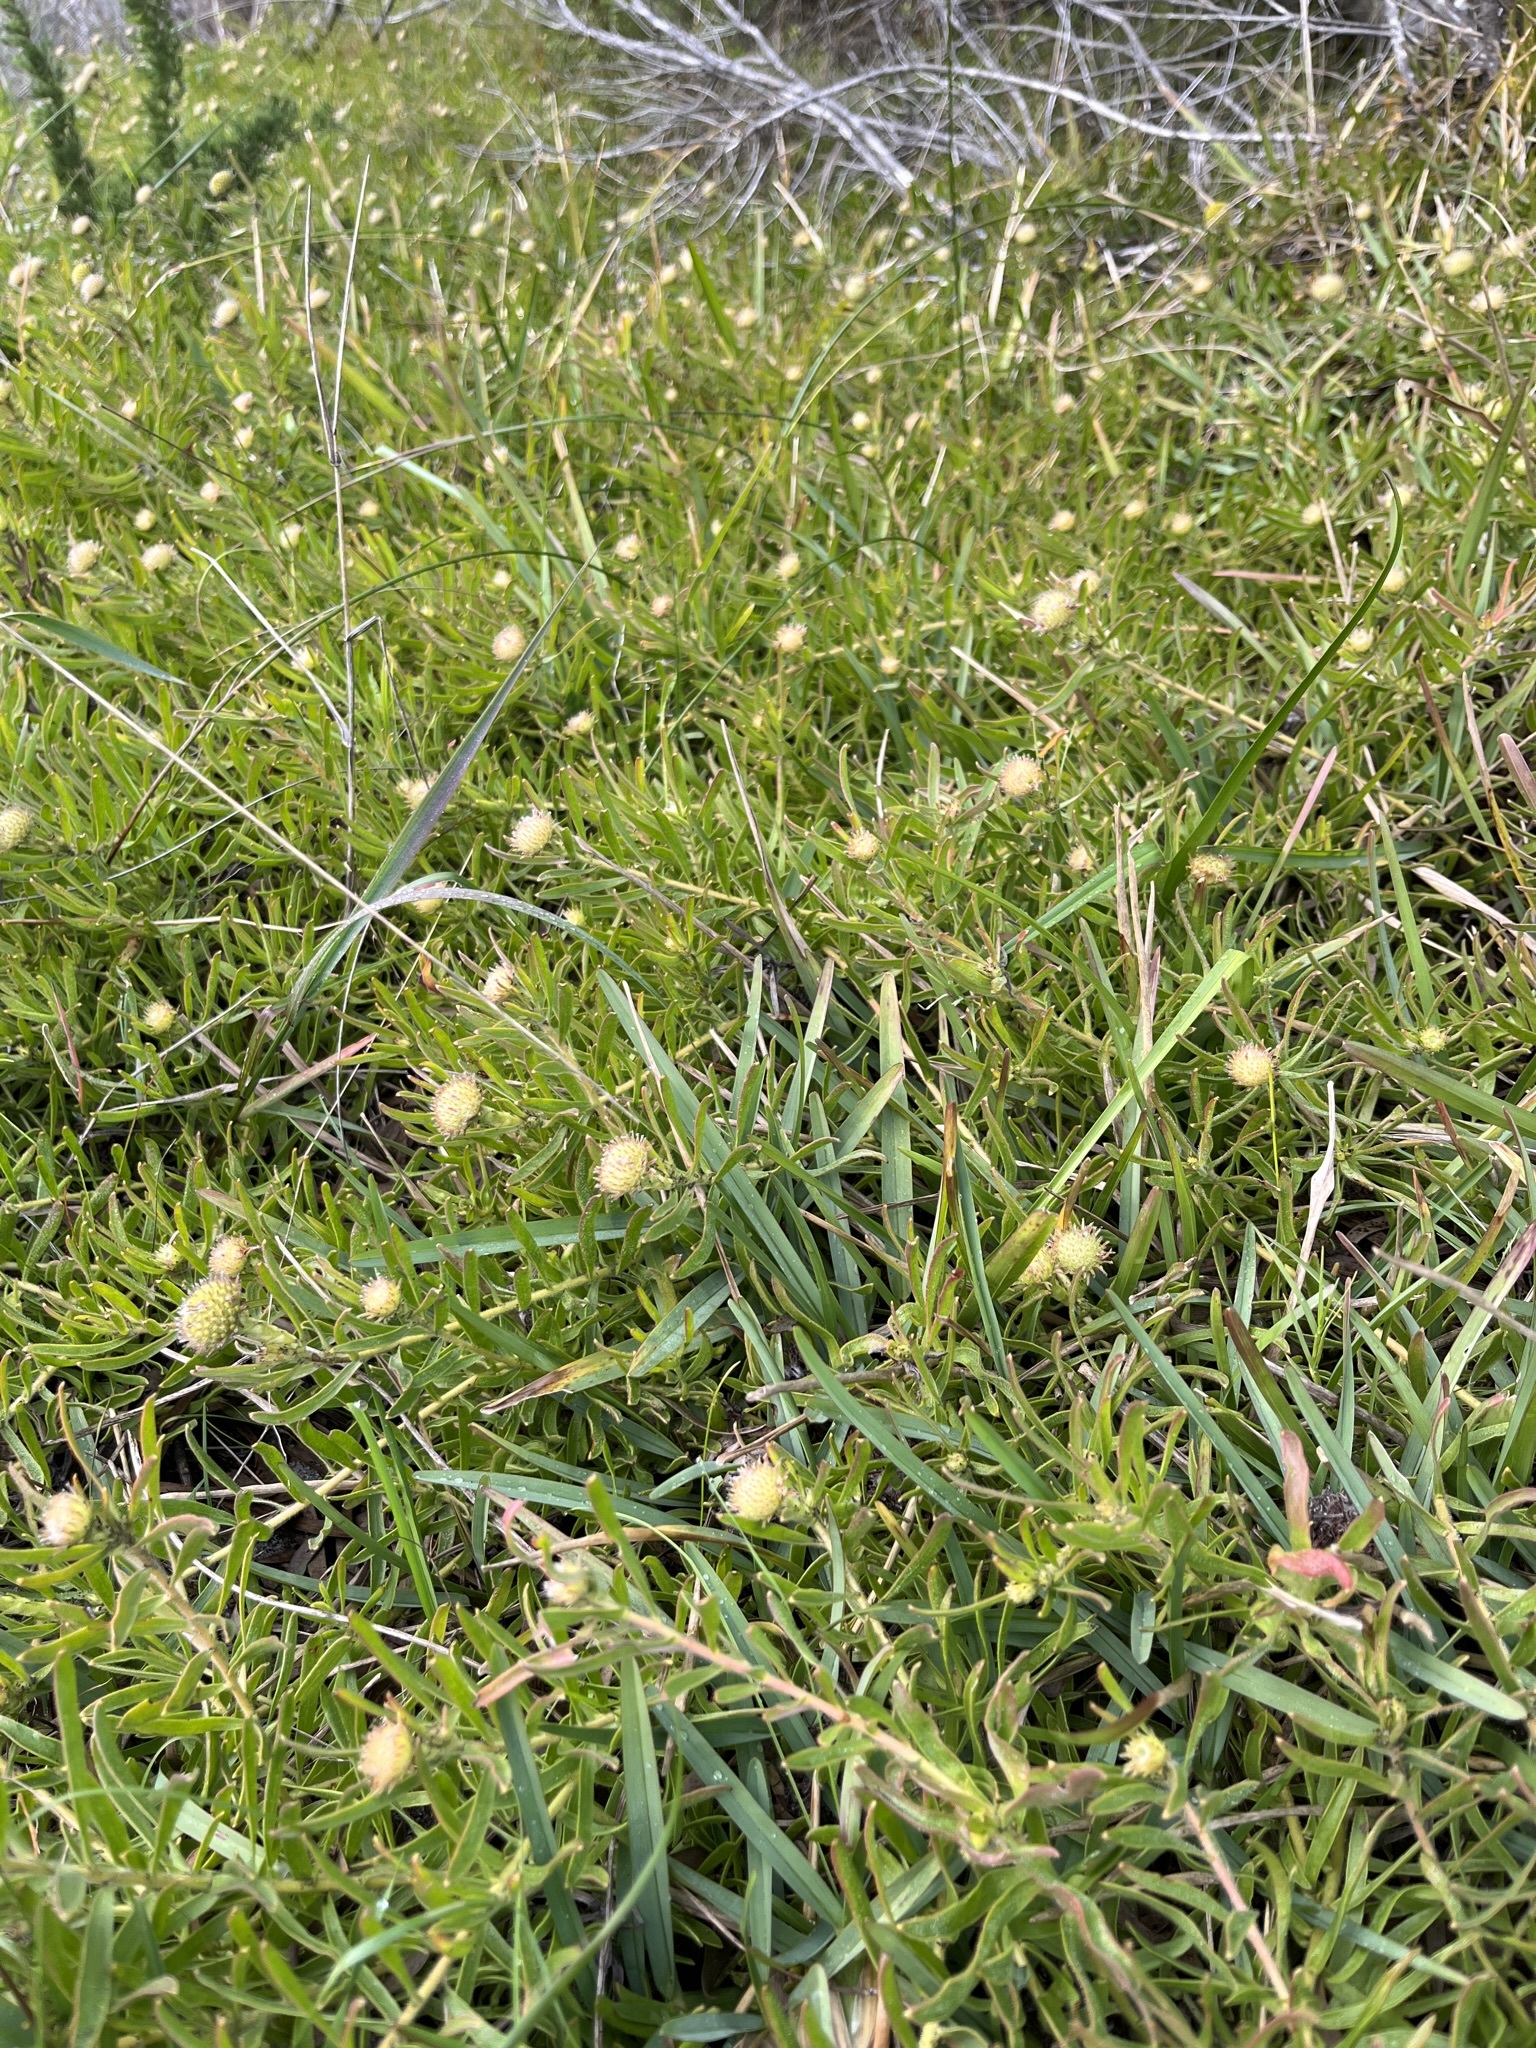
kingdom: Plantae
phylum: Tracheophyta
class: Magnoliopsida
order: Proteales
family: Proteaceae
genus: Leucospermum
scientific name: Leucospermum pedunculatum
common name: White-trailing pincushion
